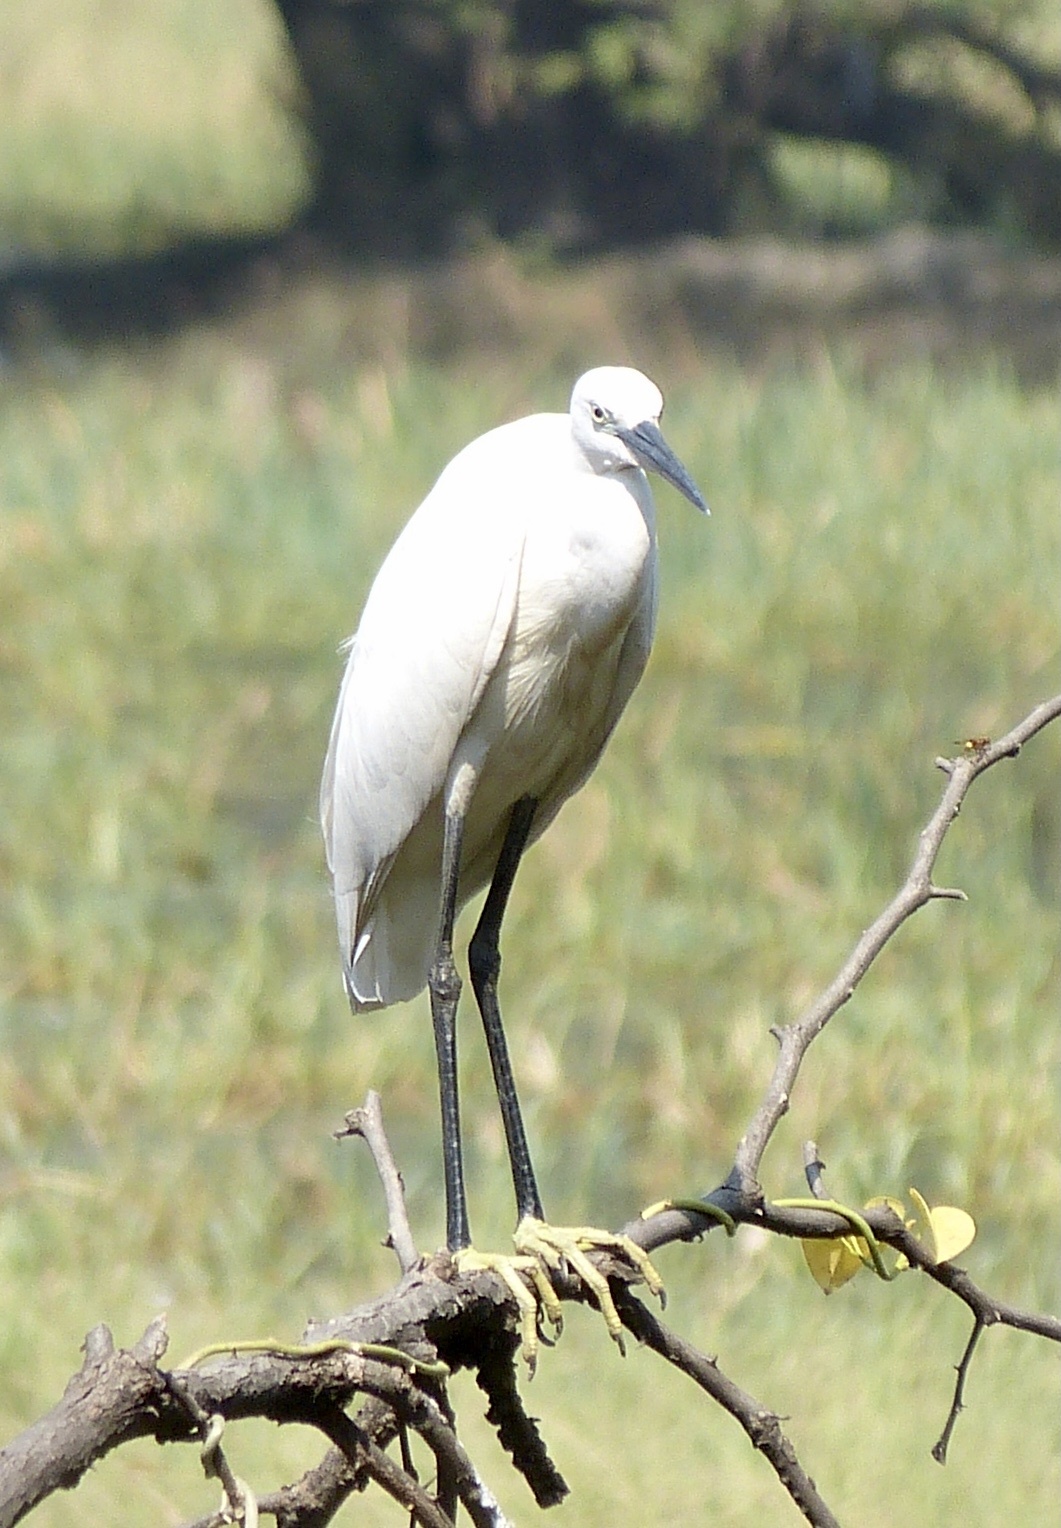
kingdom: Animalia
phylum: Chordata
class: Aves
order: Pelecaniformes
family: Ardeidae
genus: Egretta
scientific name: Egretta garzetta
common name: Little egret
